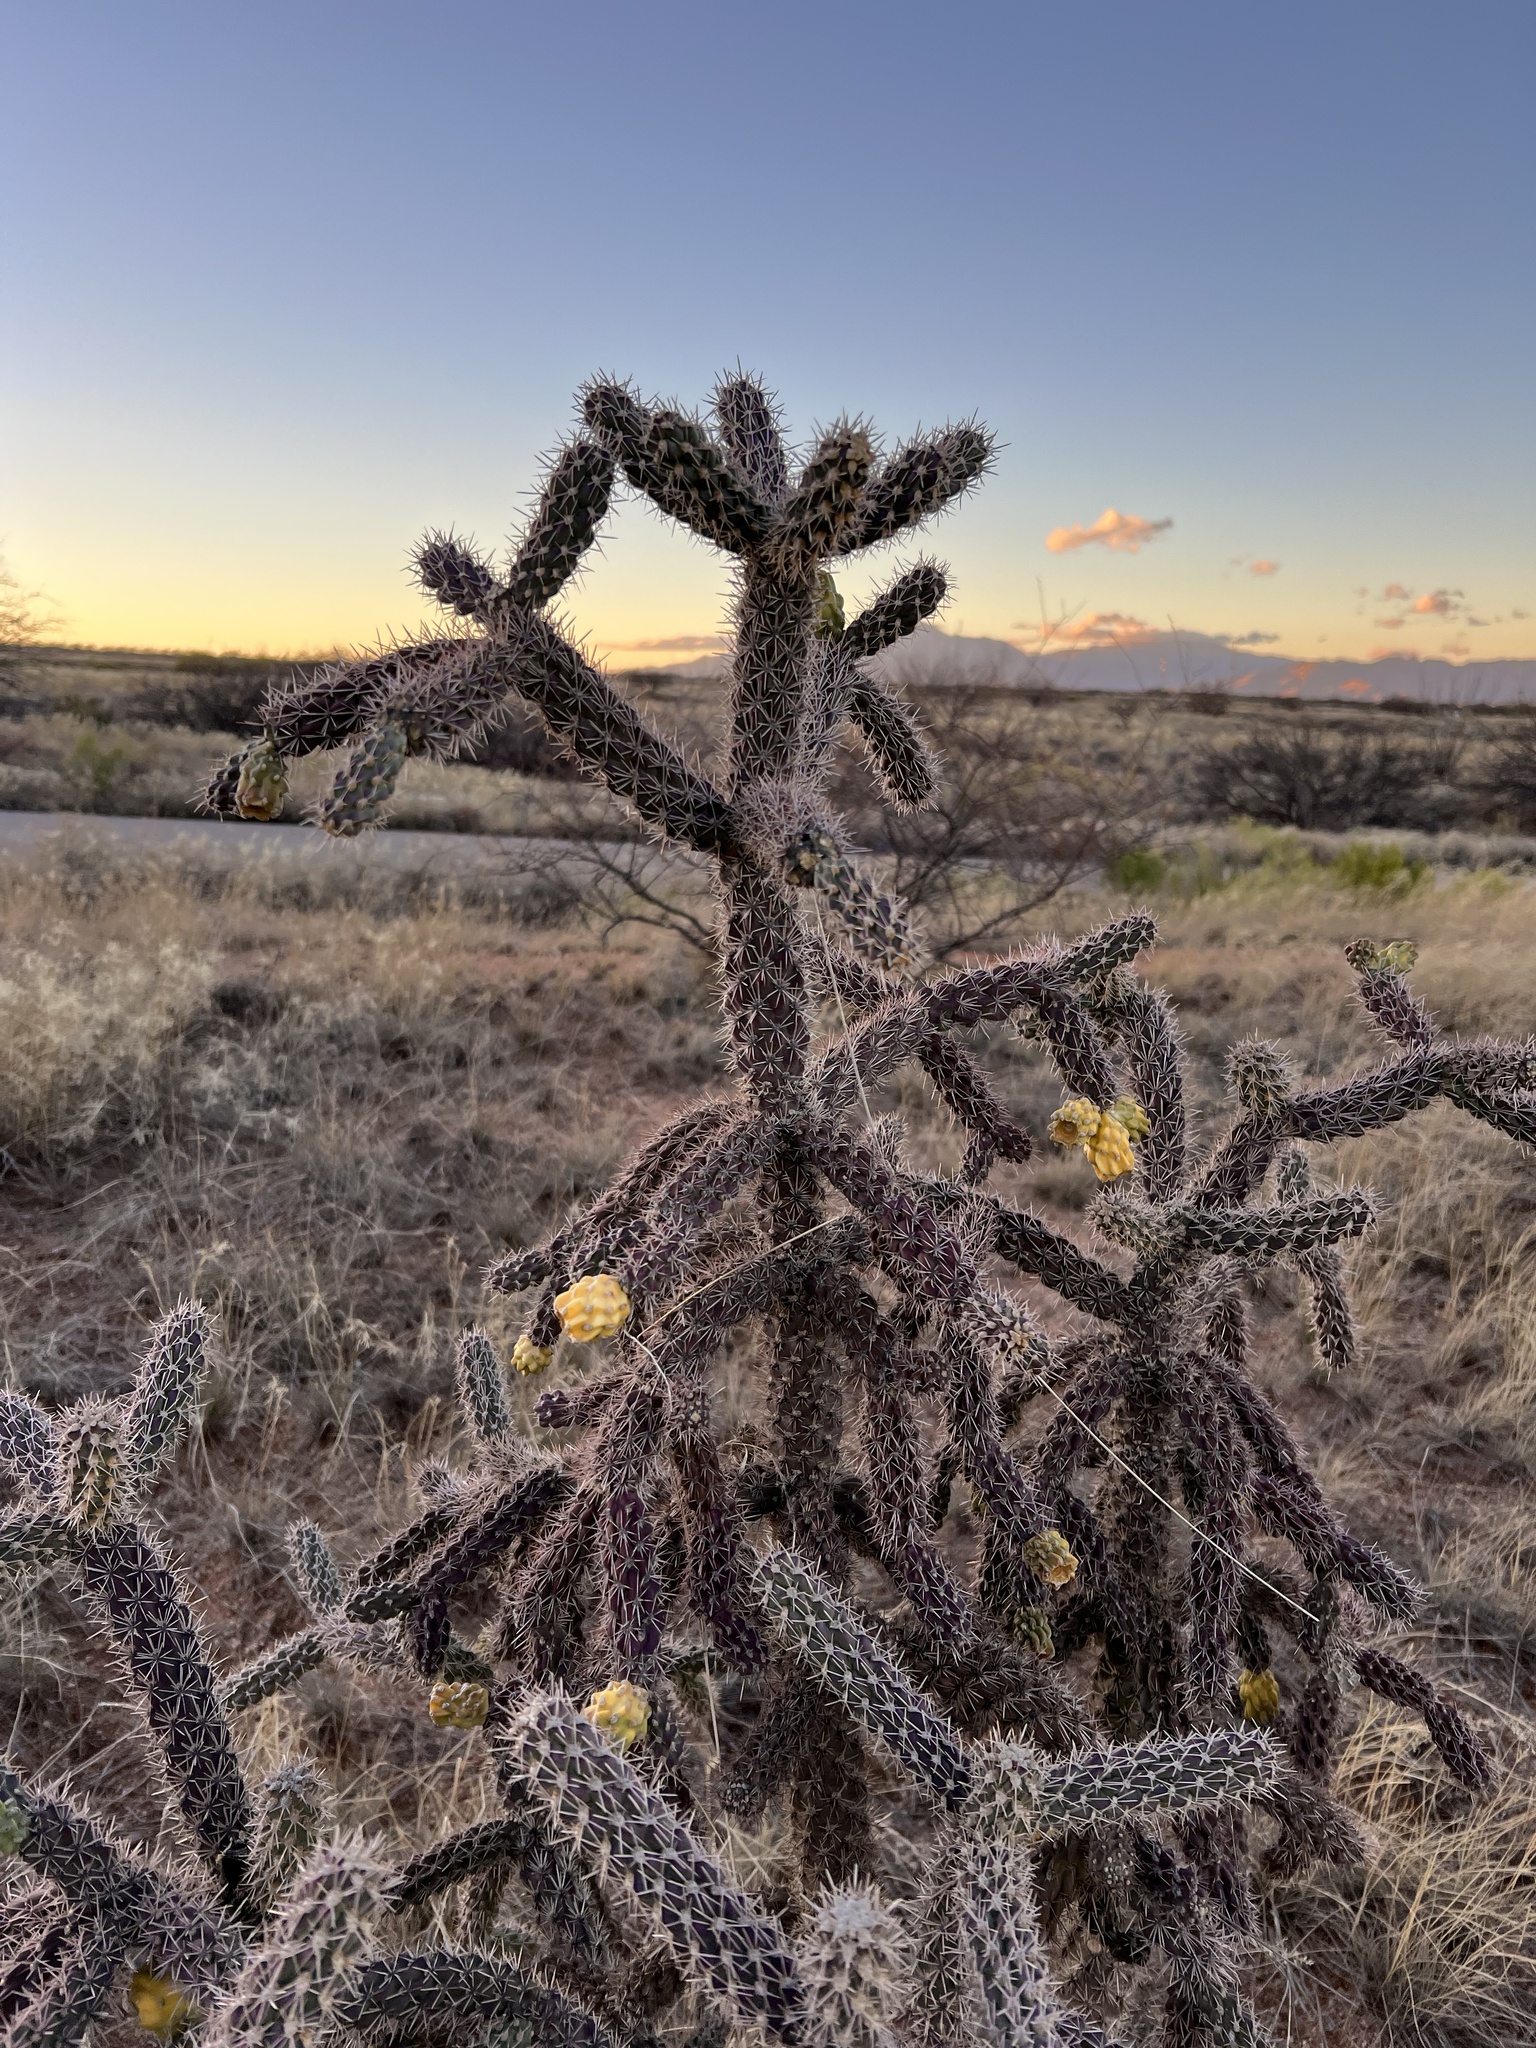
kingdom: Plantae
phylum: Tracheophyta
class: Magnoliopsida
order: Caryophyllales
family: Cactaceae
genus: Cylindropuntia
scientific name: Cylindropuntia imbricata
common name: Candelabrum cactus
